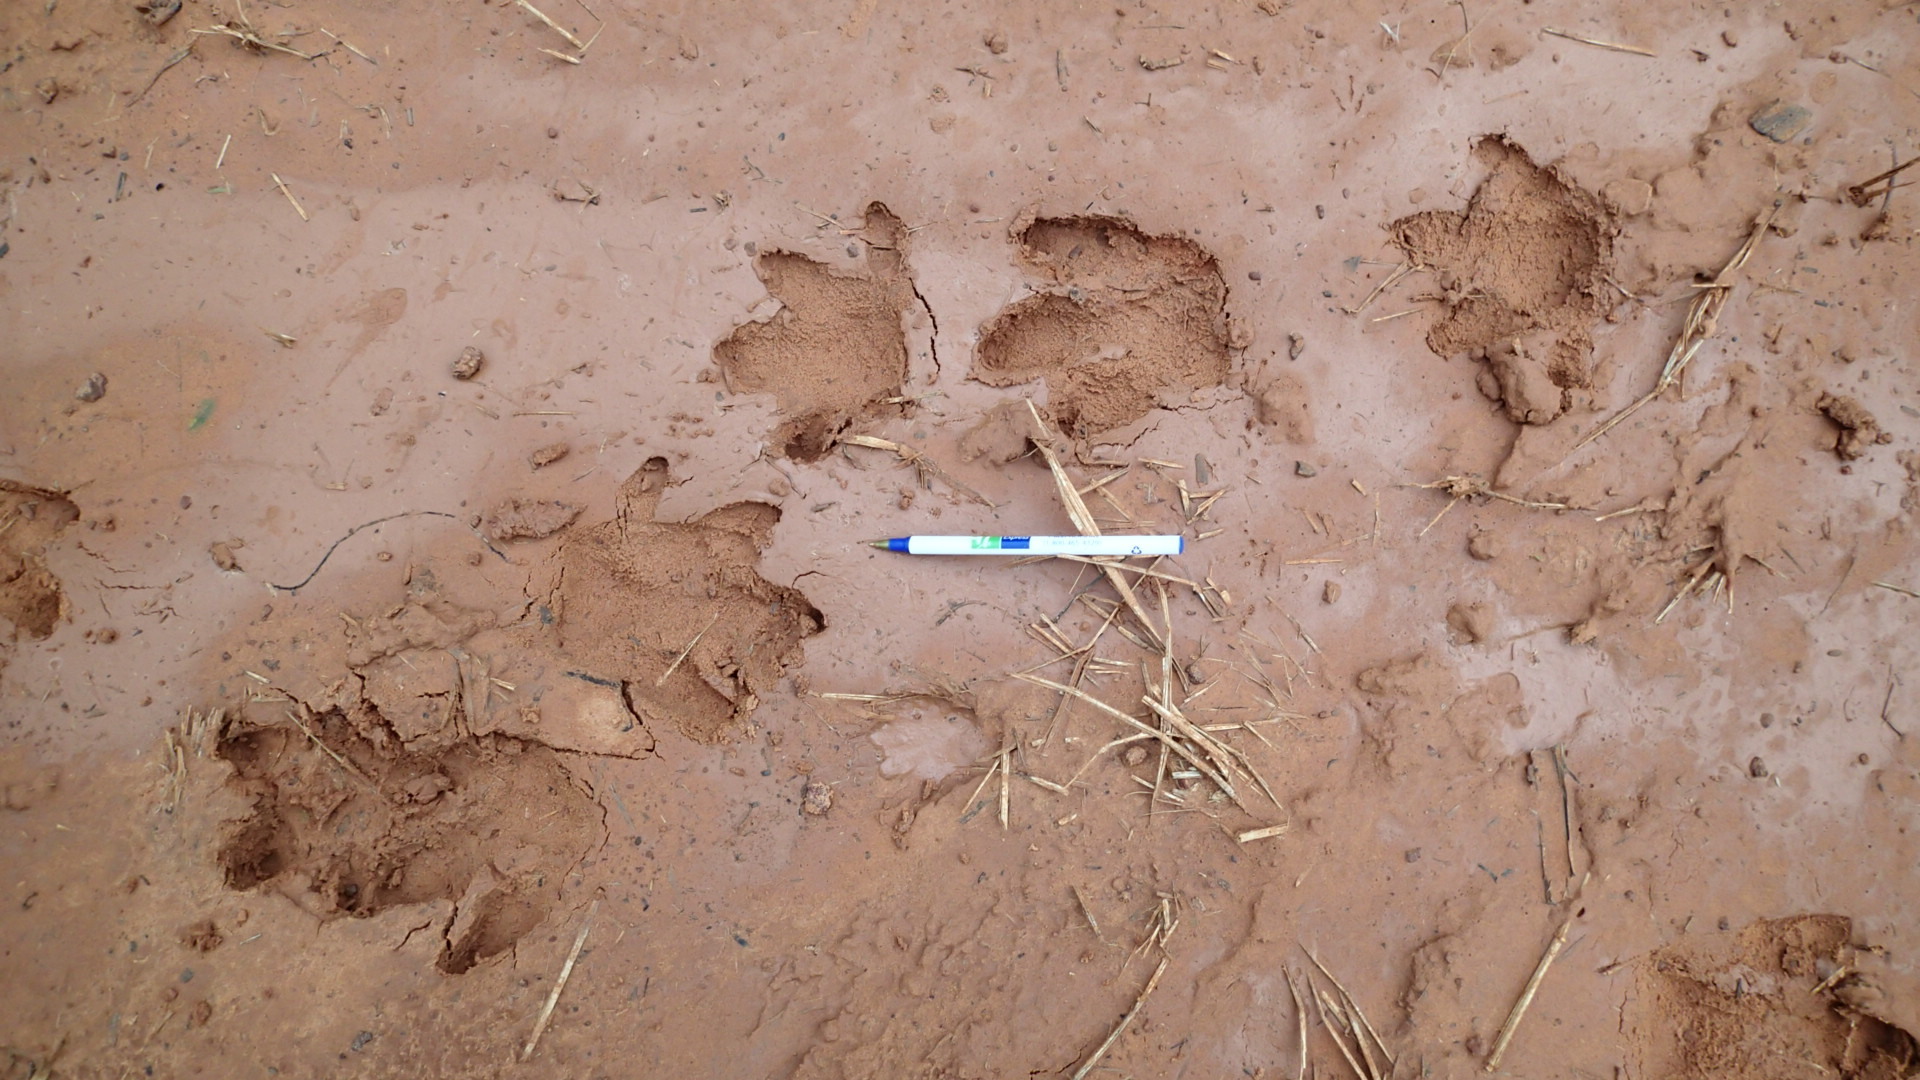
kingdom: Animalia
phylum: Chordata
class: Mammalia
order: Rodentia
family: Caviidae
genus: Hydrochoerus
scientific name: Hydrochoerus hydrochaeris
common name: Capybara
